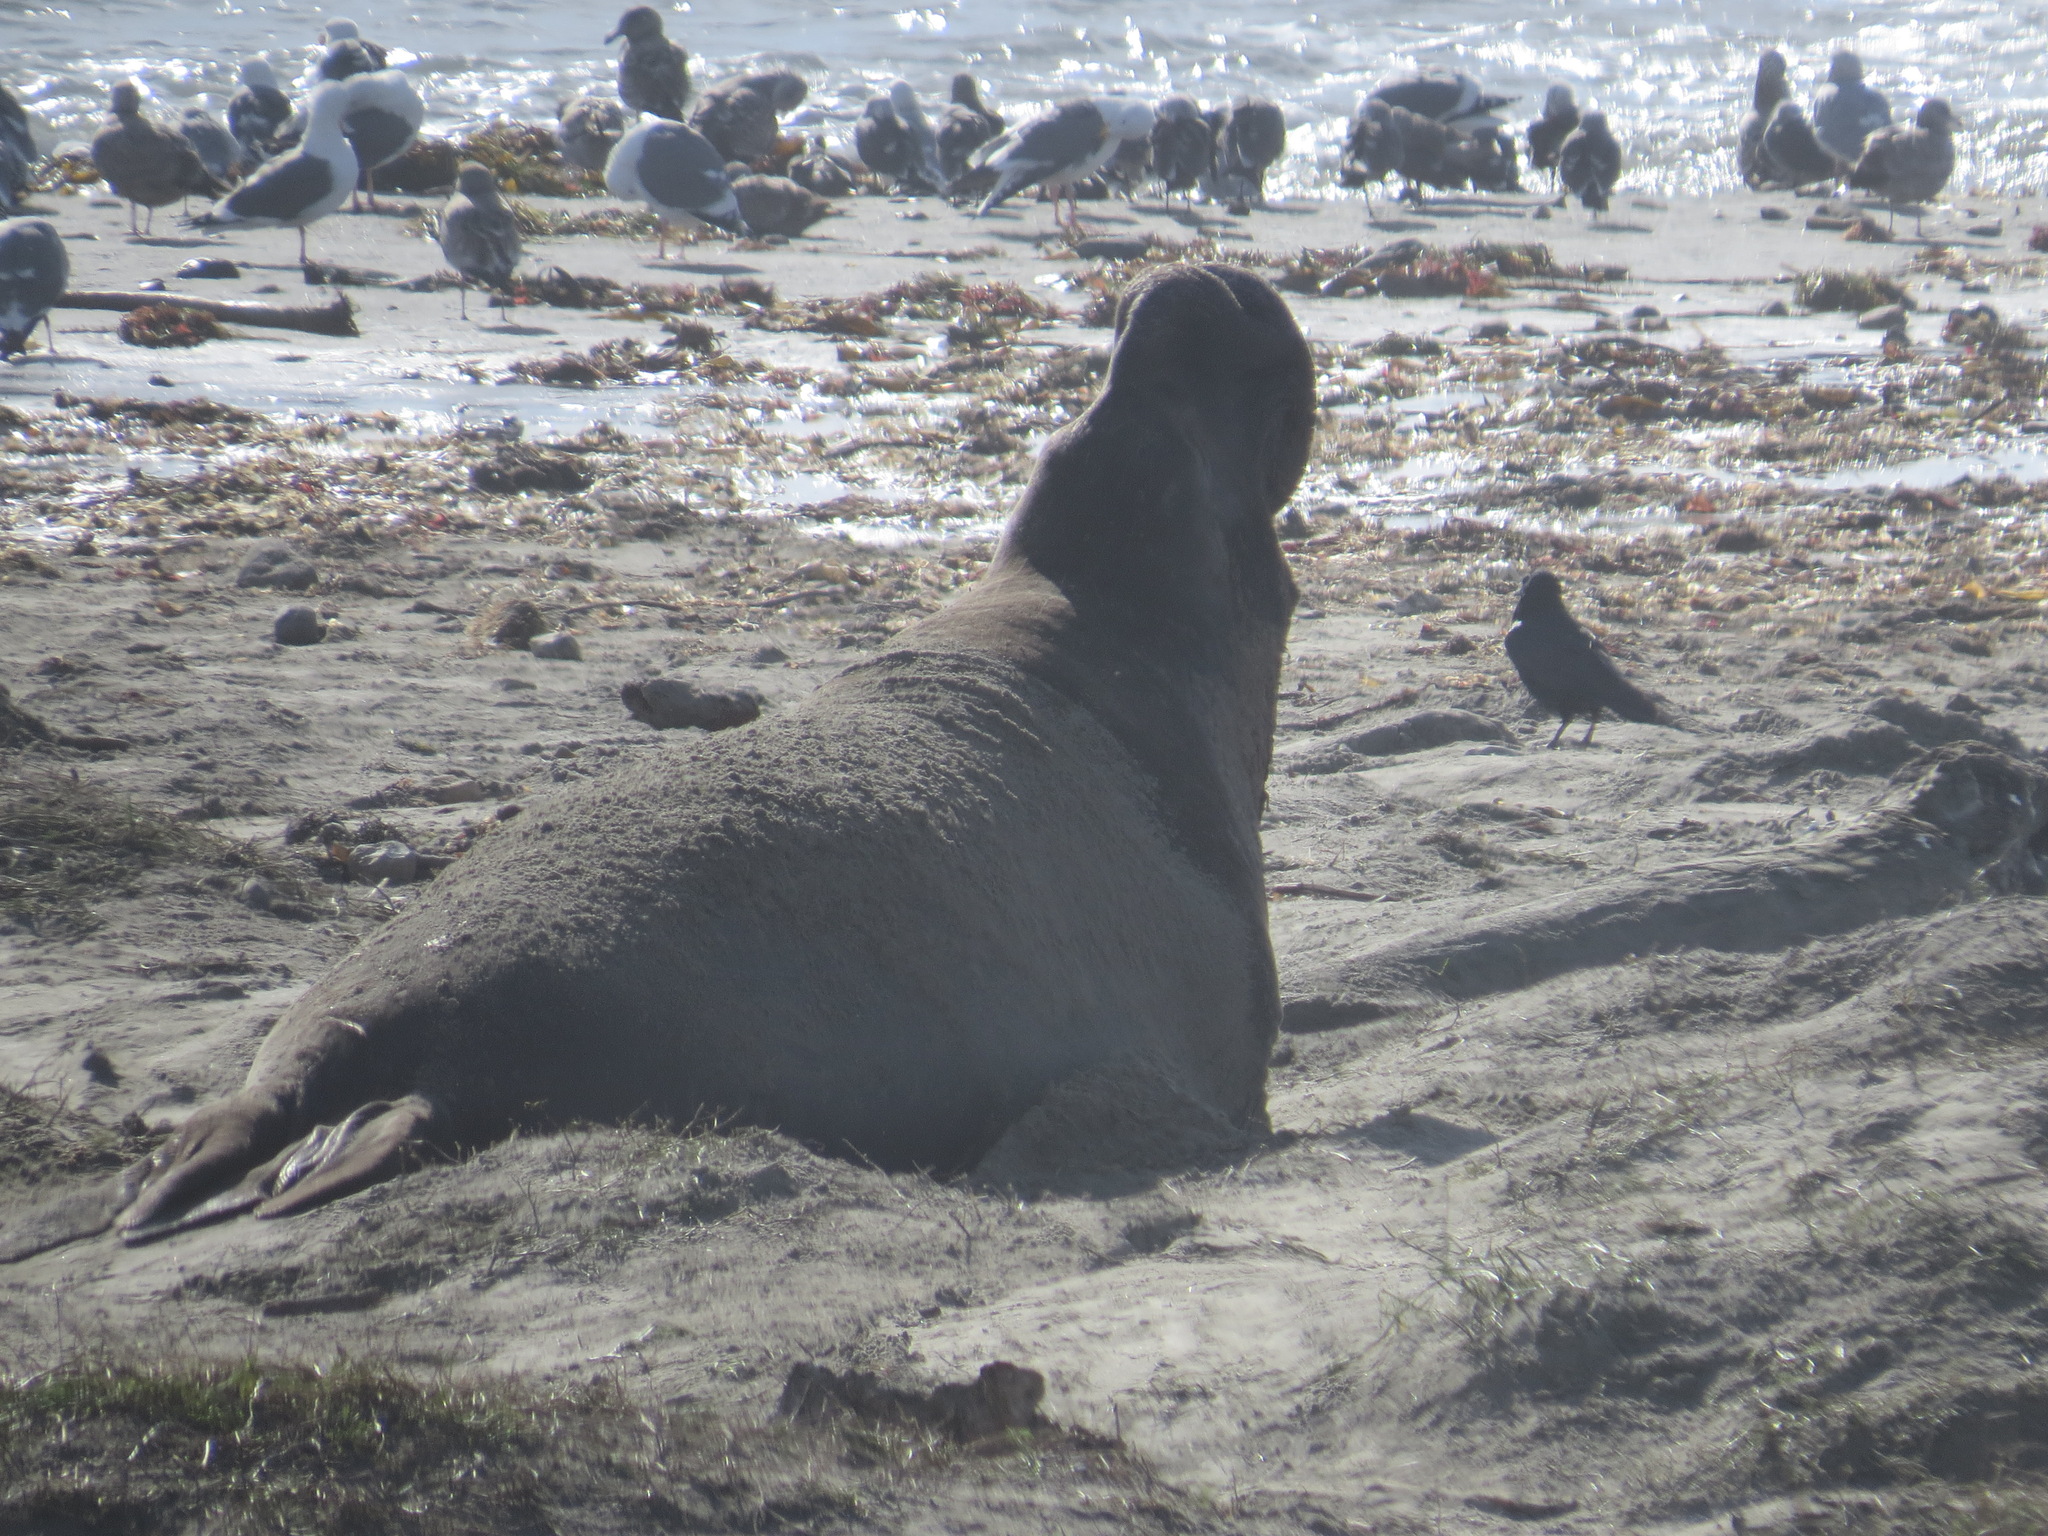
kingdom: Animalia
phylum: Chordata
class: Mammalia
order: Carnivora
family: Phocidae
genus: Mirounga
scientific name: Mirounga angustirostris
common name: Northern elephant seal
